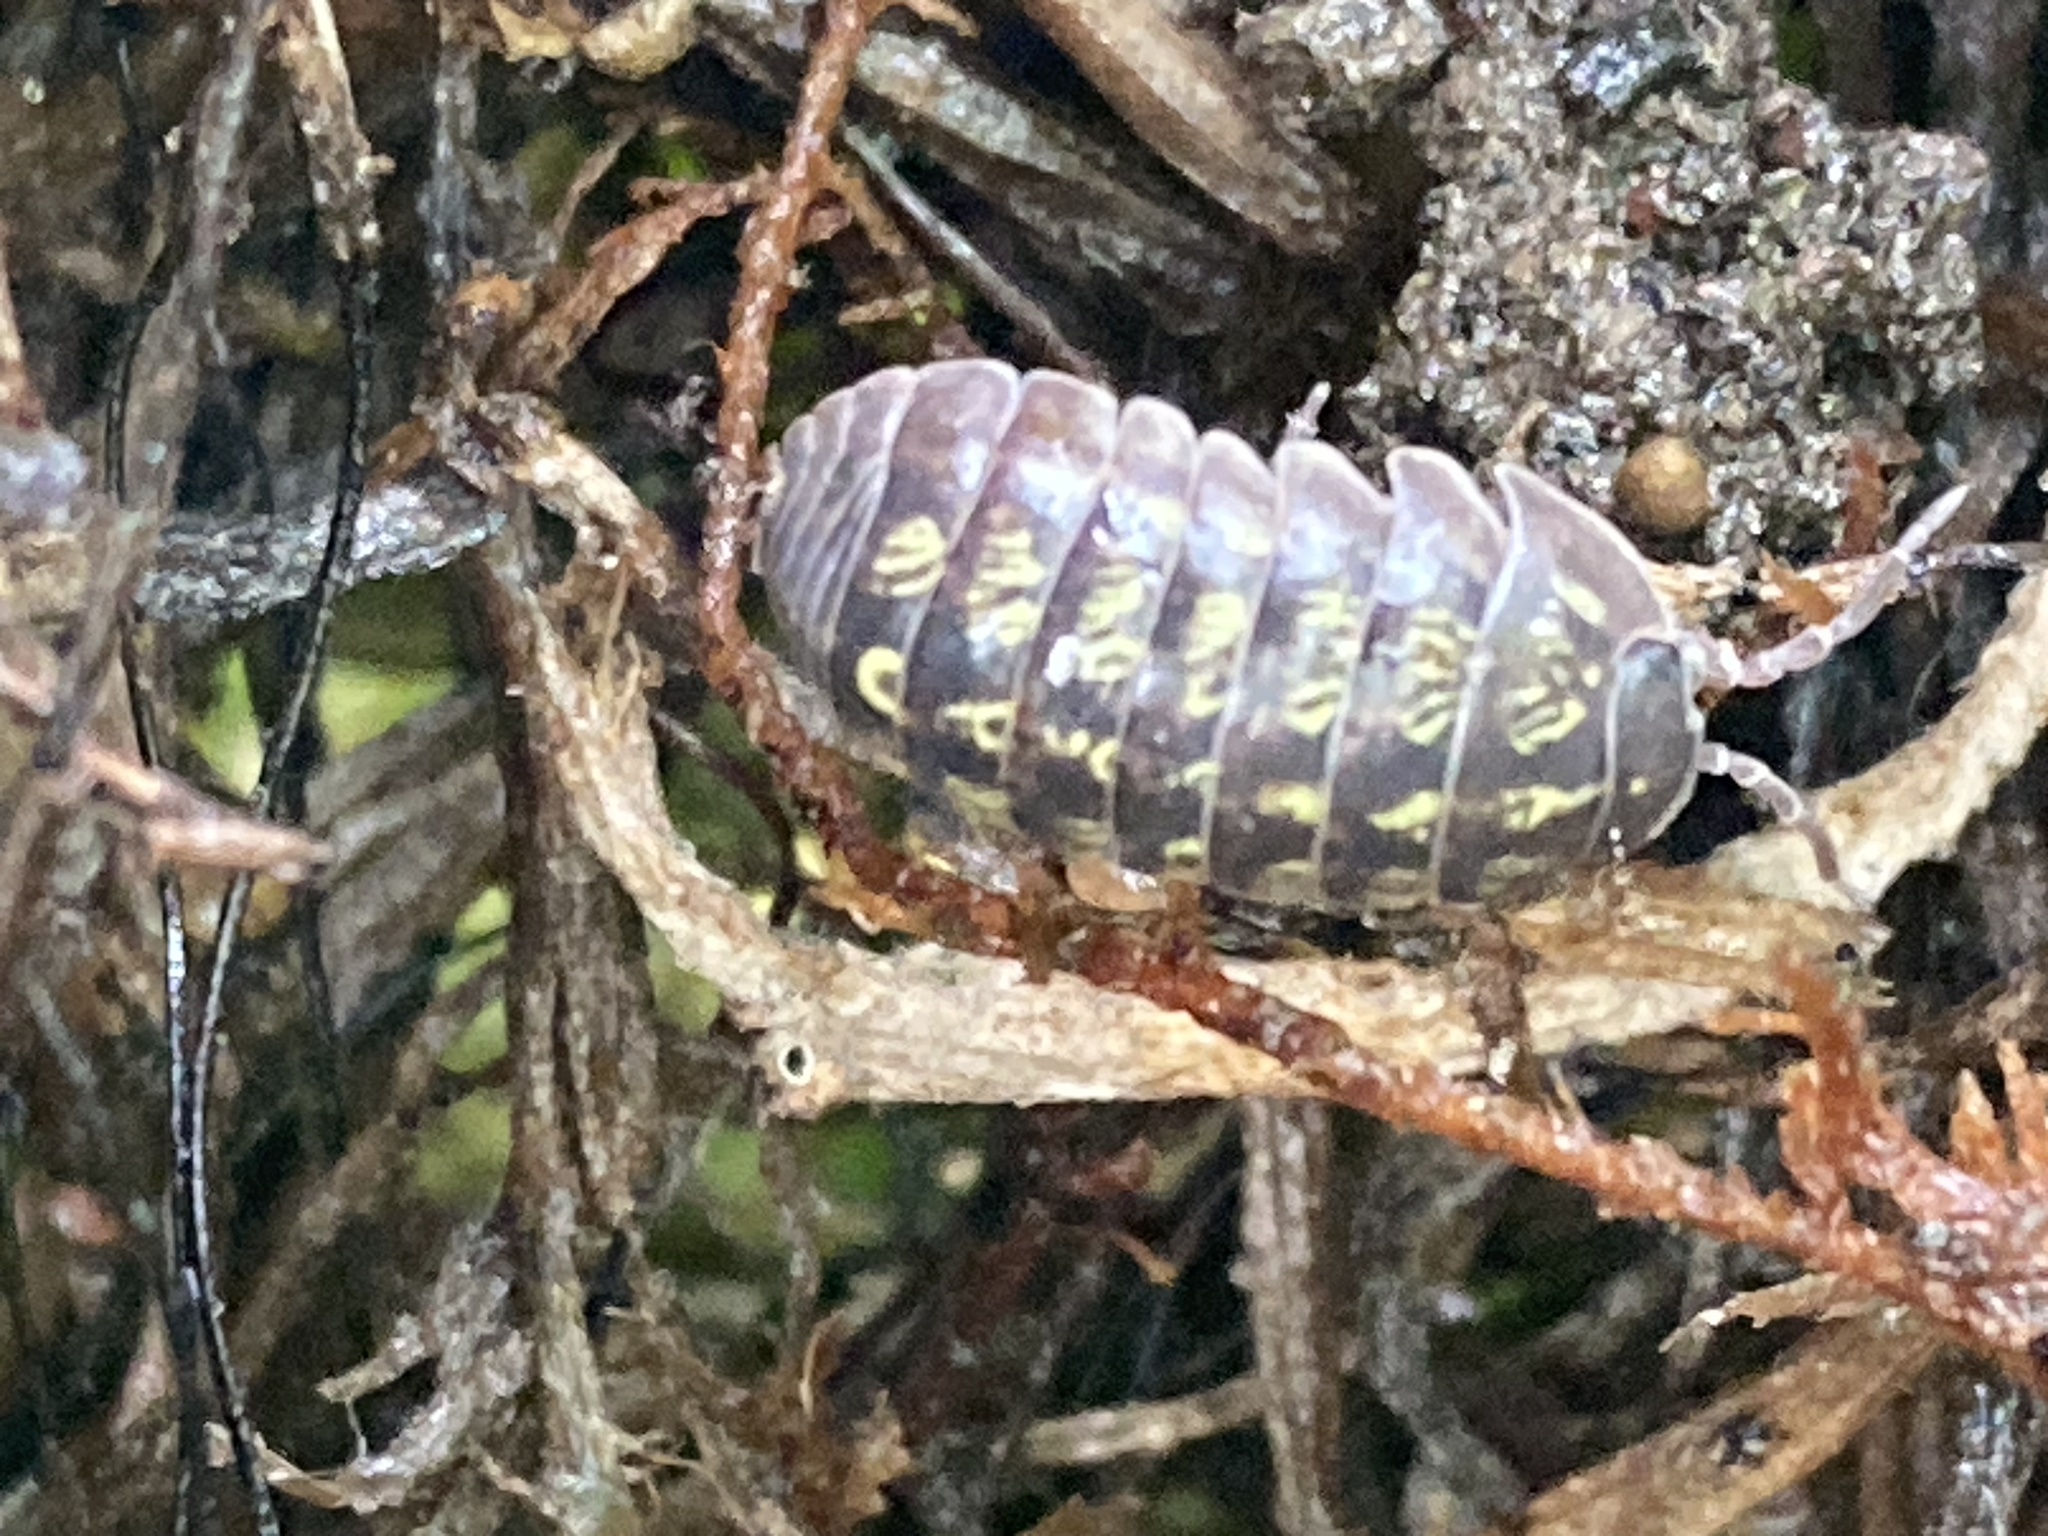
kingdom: Animalia
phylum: Arthropoda
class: Malacostraca
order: Isopoda
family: Armadillidiidae
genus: Armadillidium
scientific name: Armadillidium vulgare
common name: Common pill woodlouse
